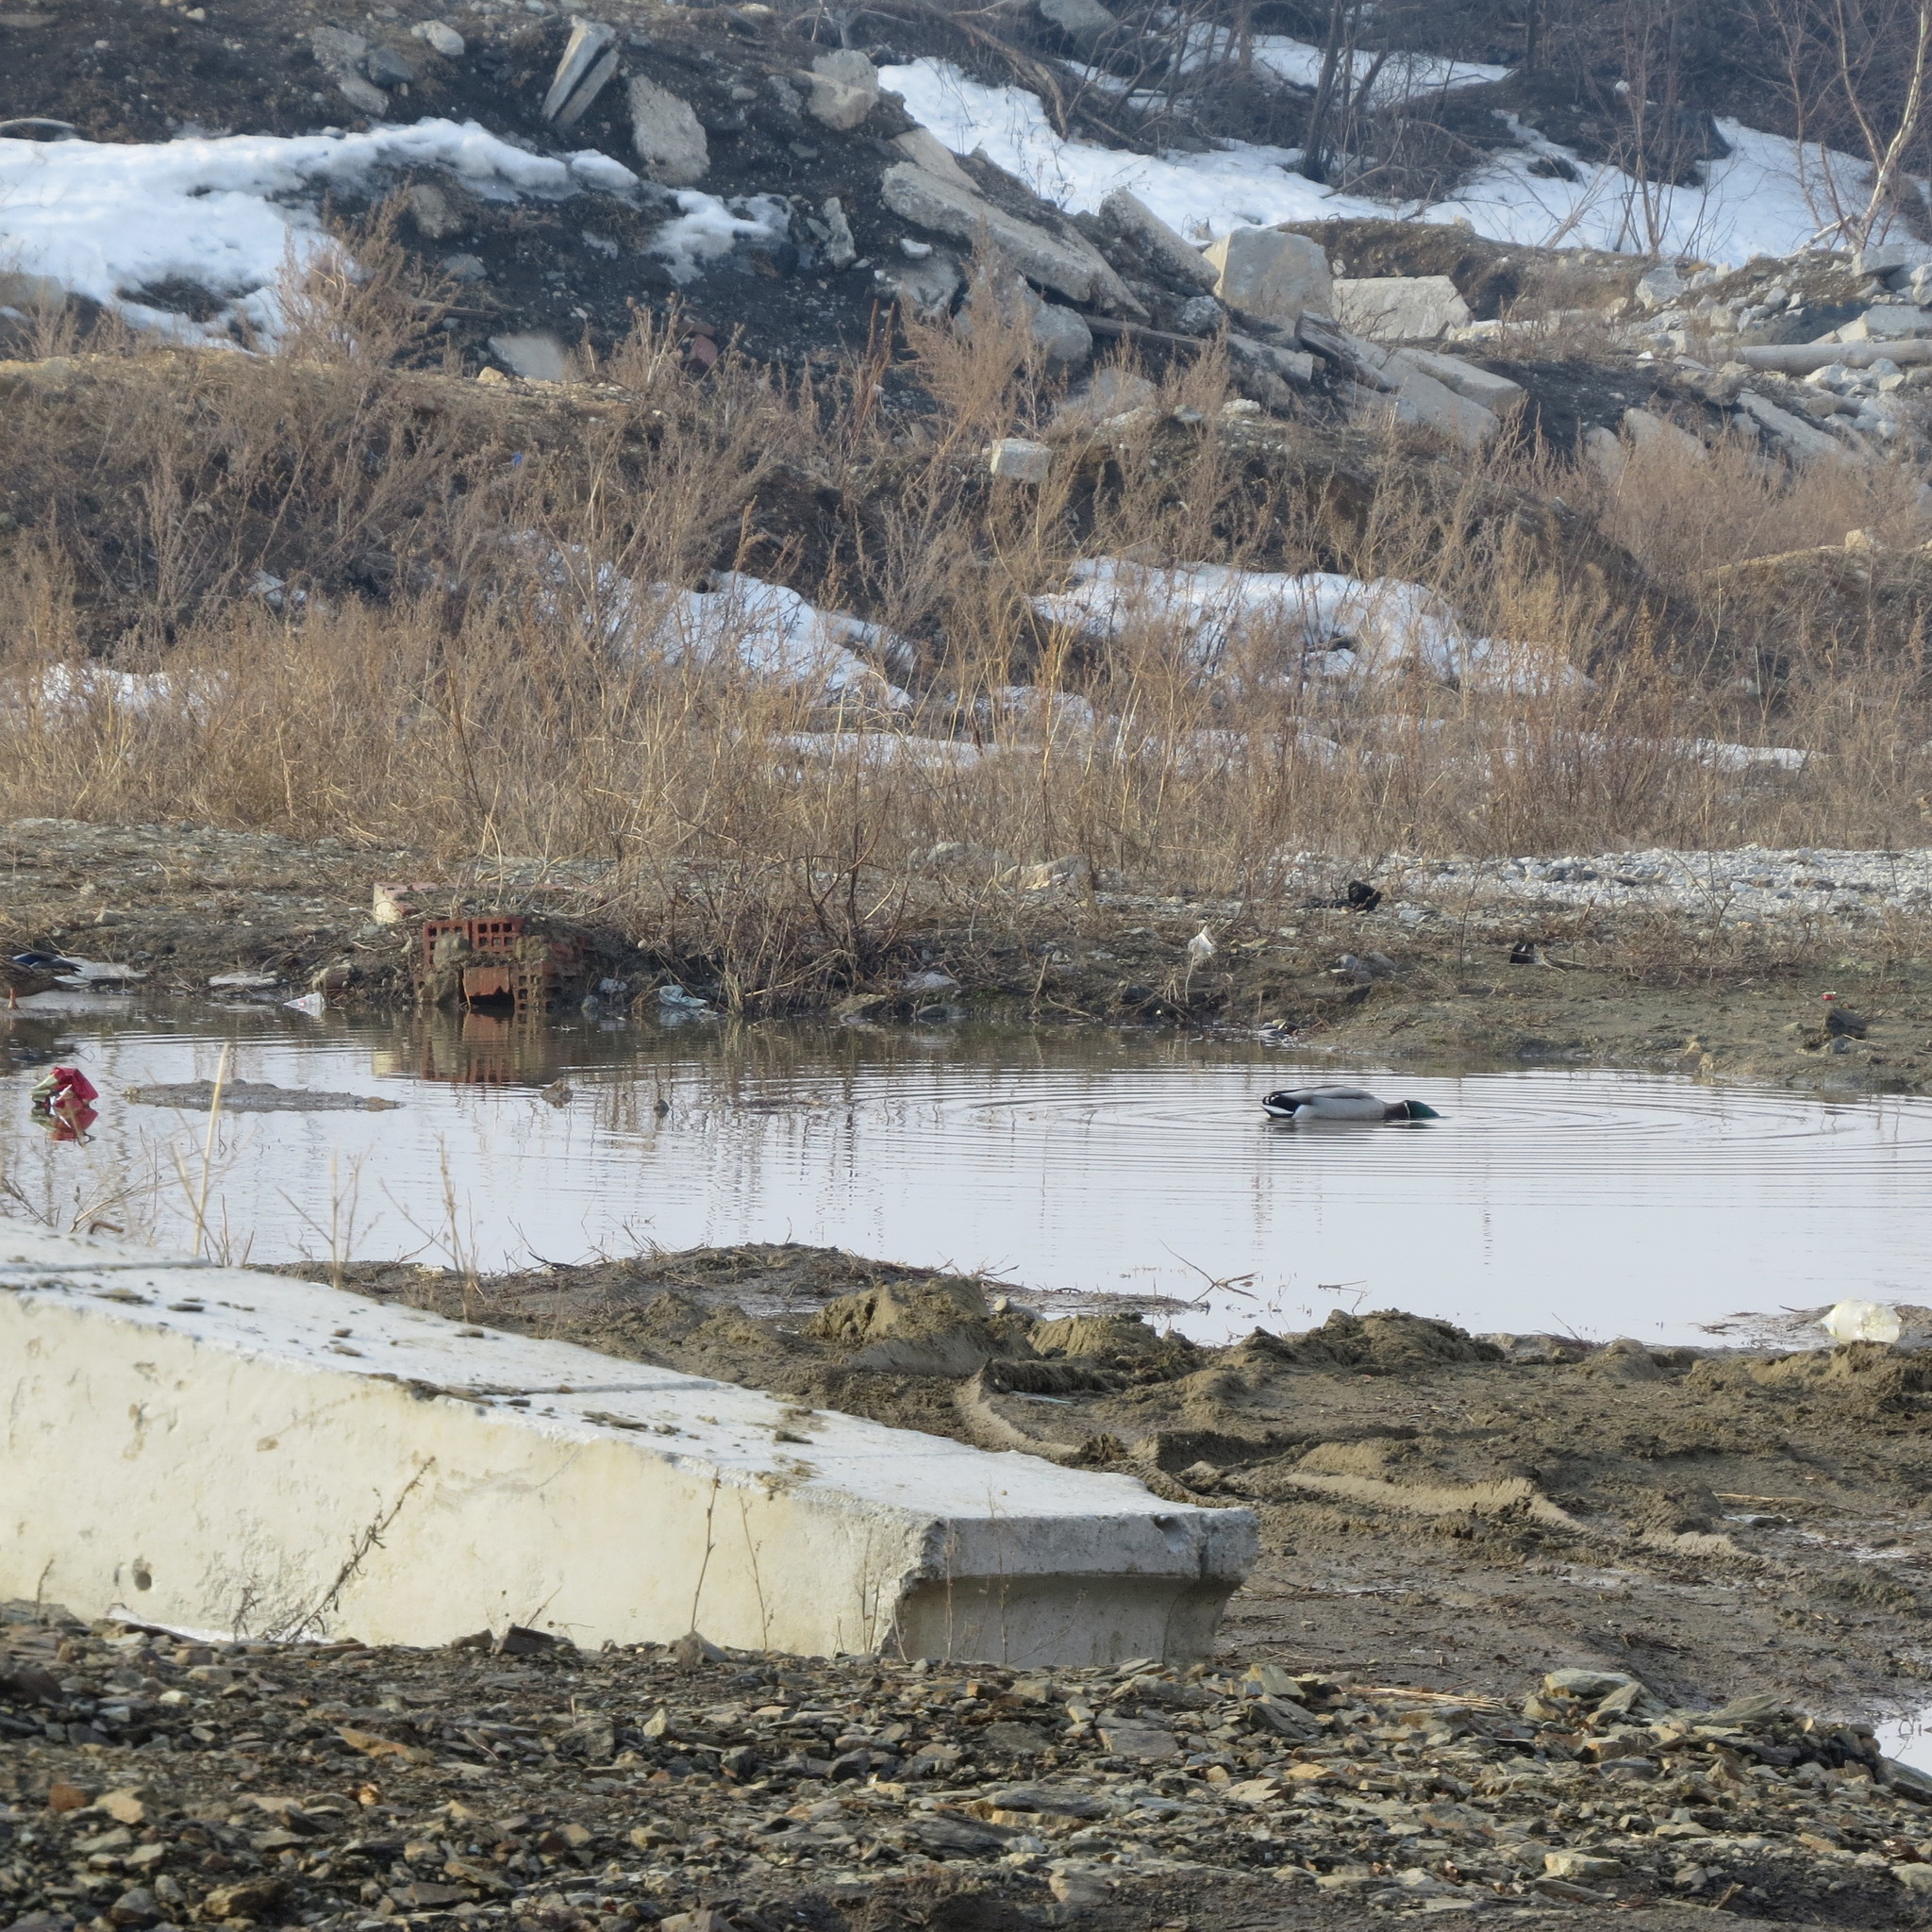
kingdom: Animalia
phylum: Chordata
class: Aves
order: Anseriformes
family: Anatidae
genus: Anas
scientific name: Anas platyrhynchos
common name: Mallard
